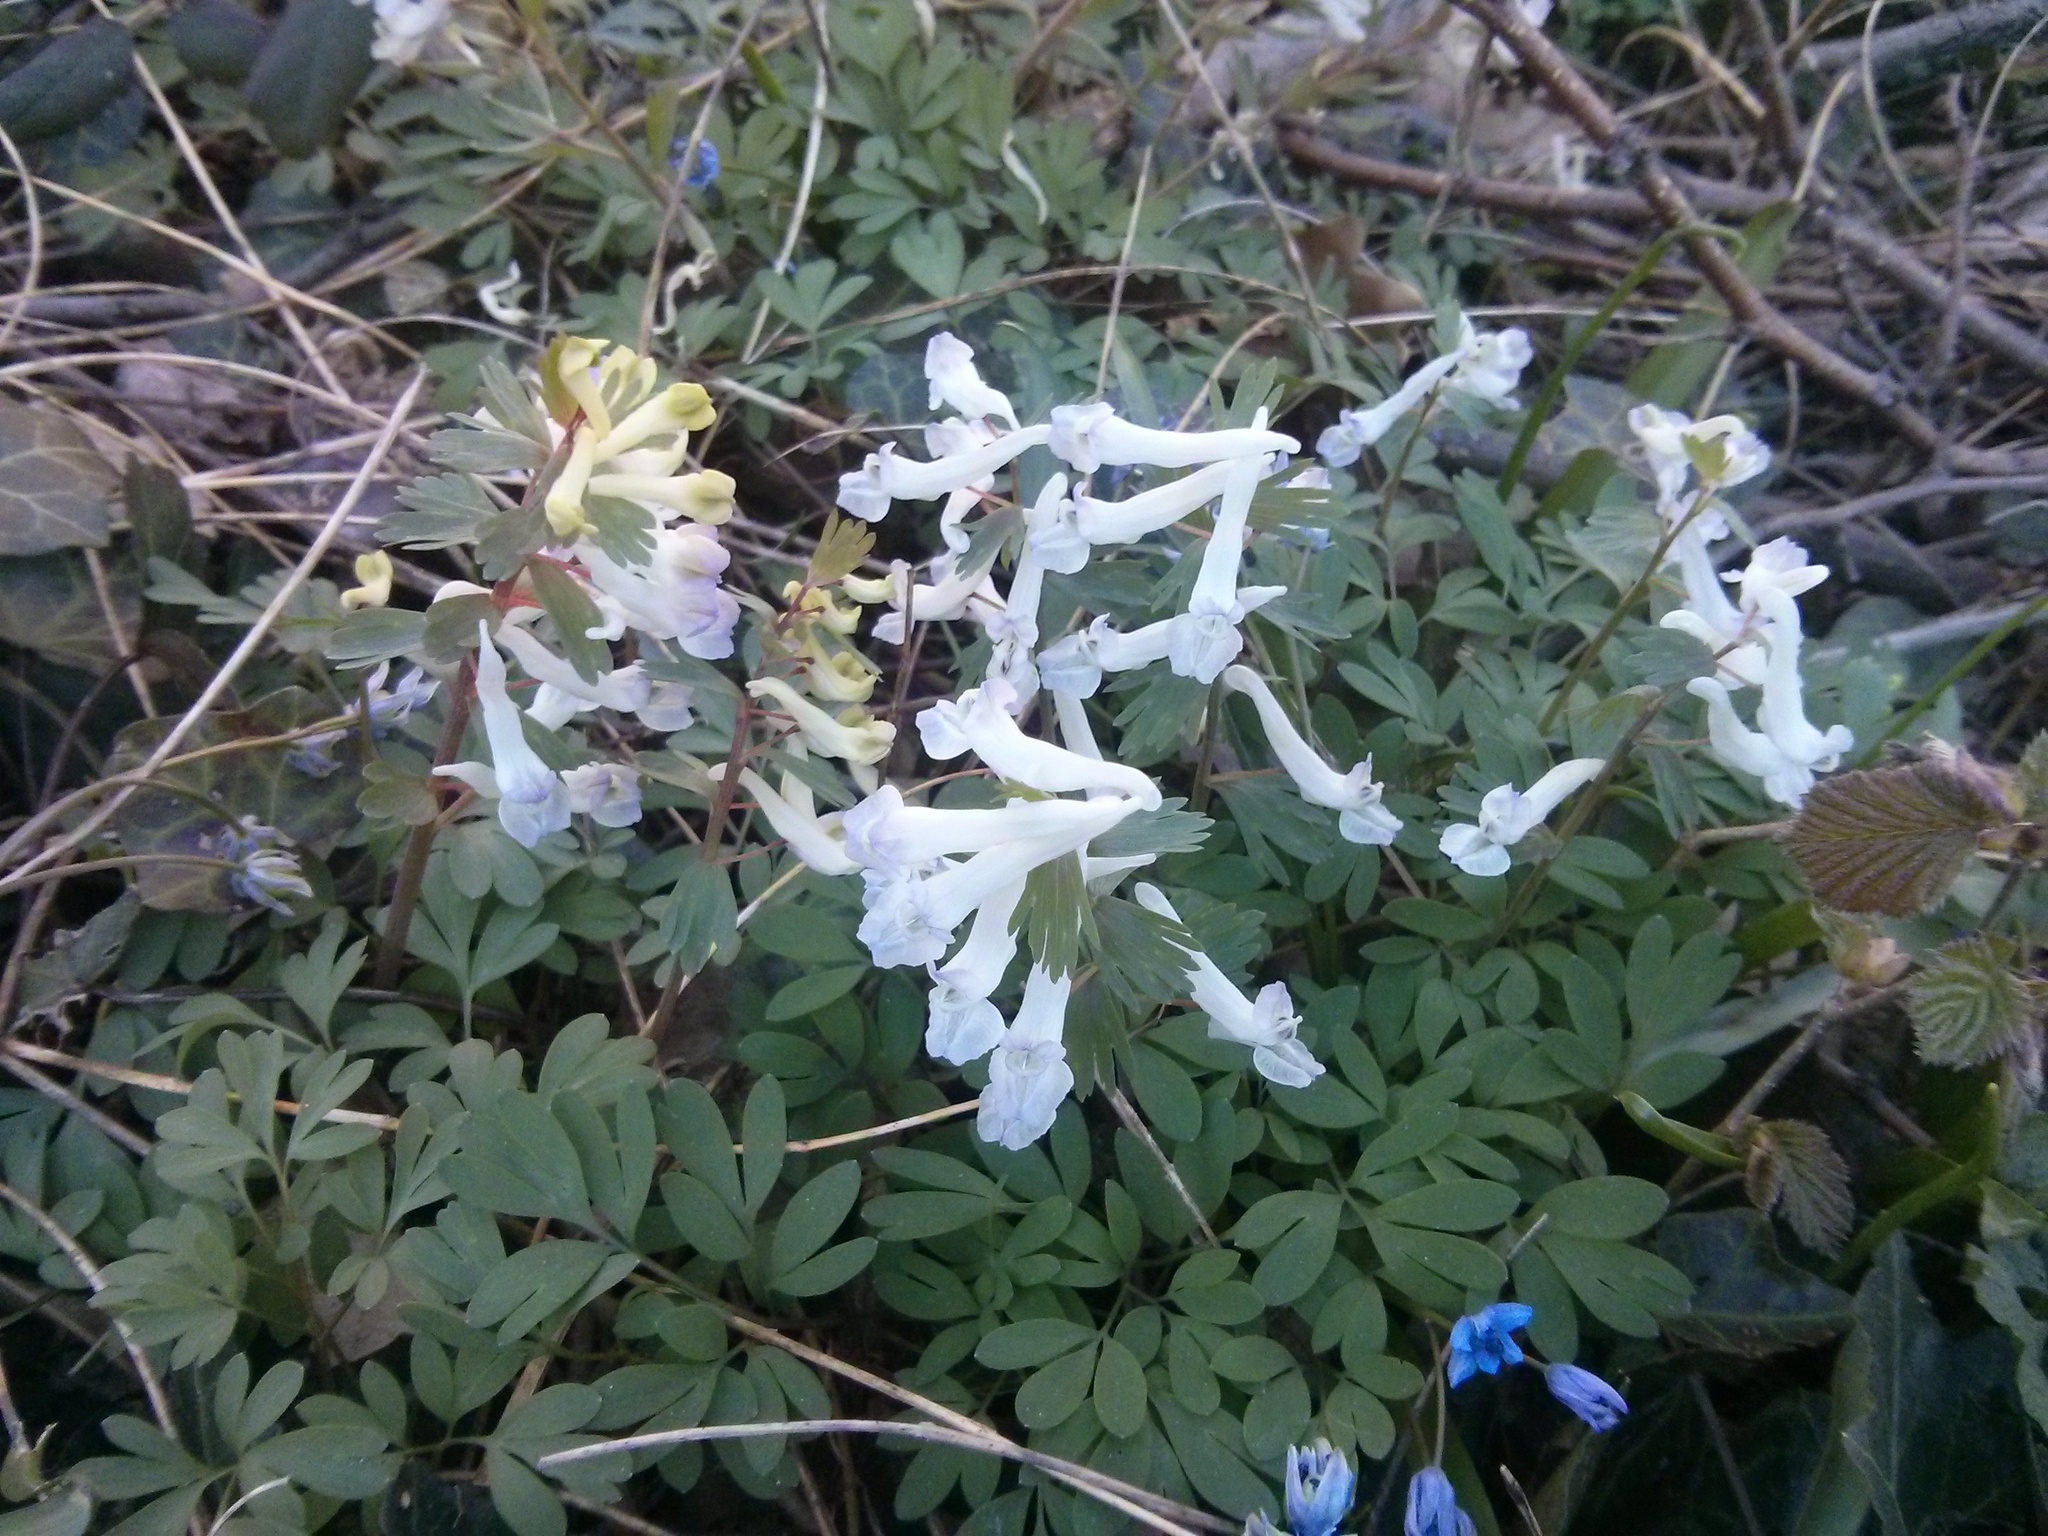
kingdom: Plantae
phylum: Tracheophyta
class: Magnoliopsida
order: Ranunculales
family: Papaveraceae
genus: Corydalis
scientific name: Corydalis cava
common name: Hollowroot
